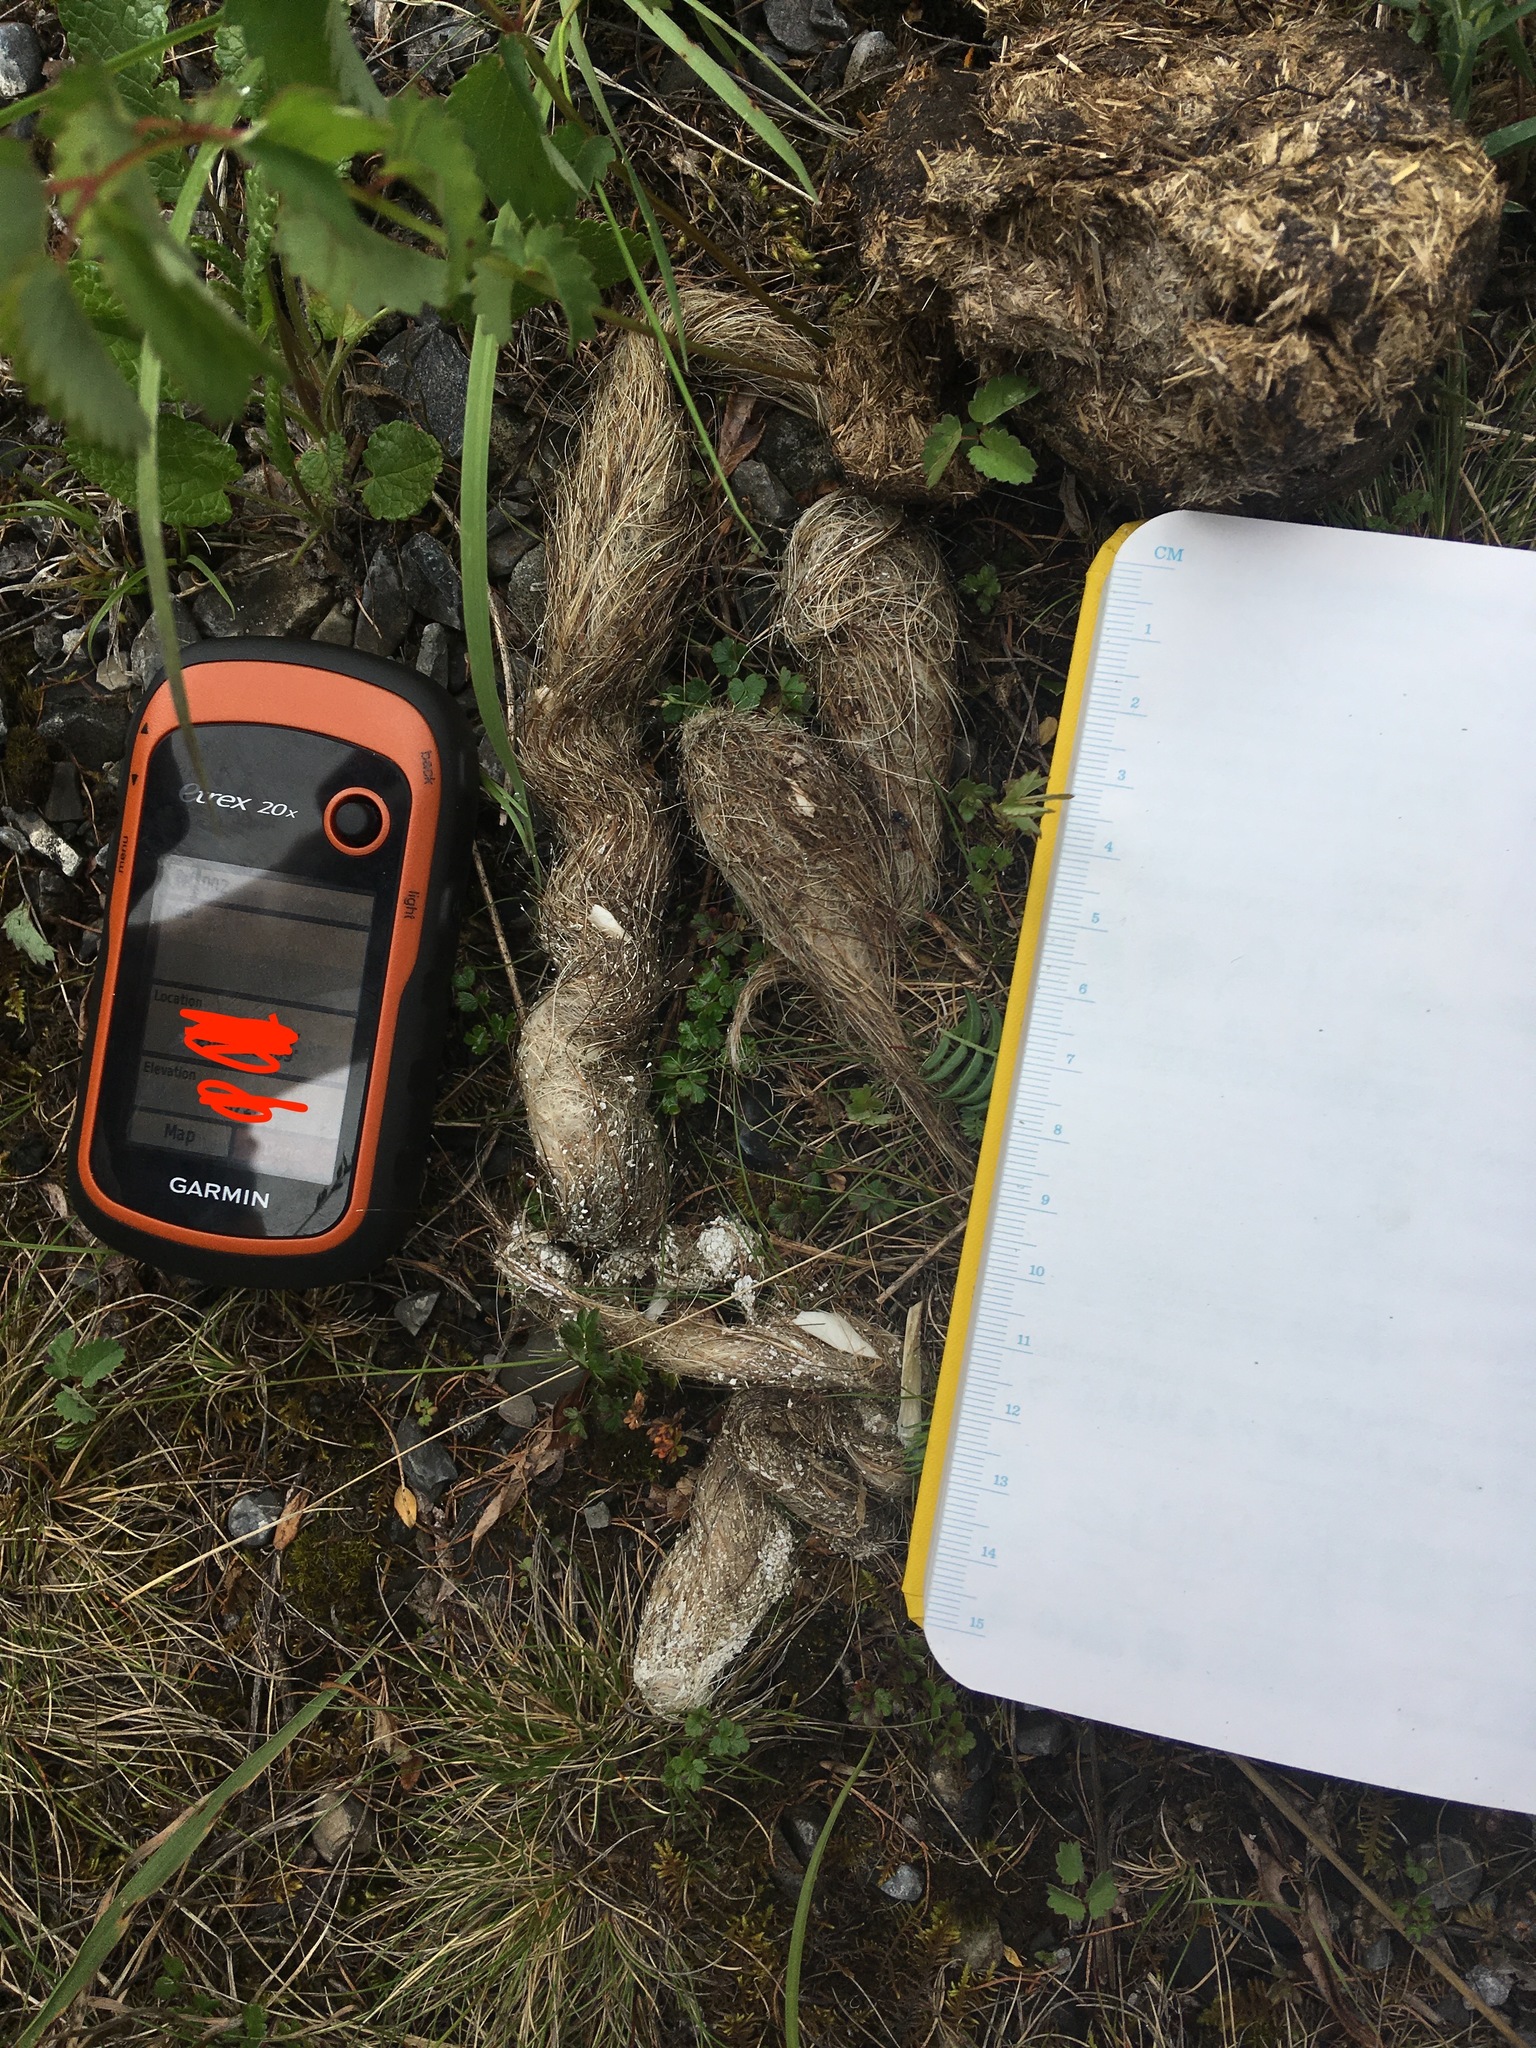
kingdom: Animalia
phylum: Chordata
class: Mammalia
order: Carnivora
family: Mustelidae
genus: Gulo
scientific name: Gulo gulo
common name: Wolverine
